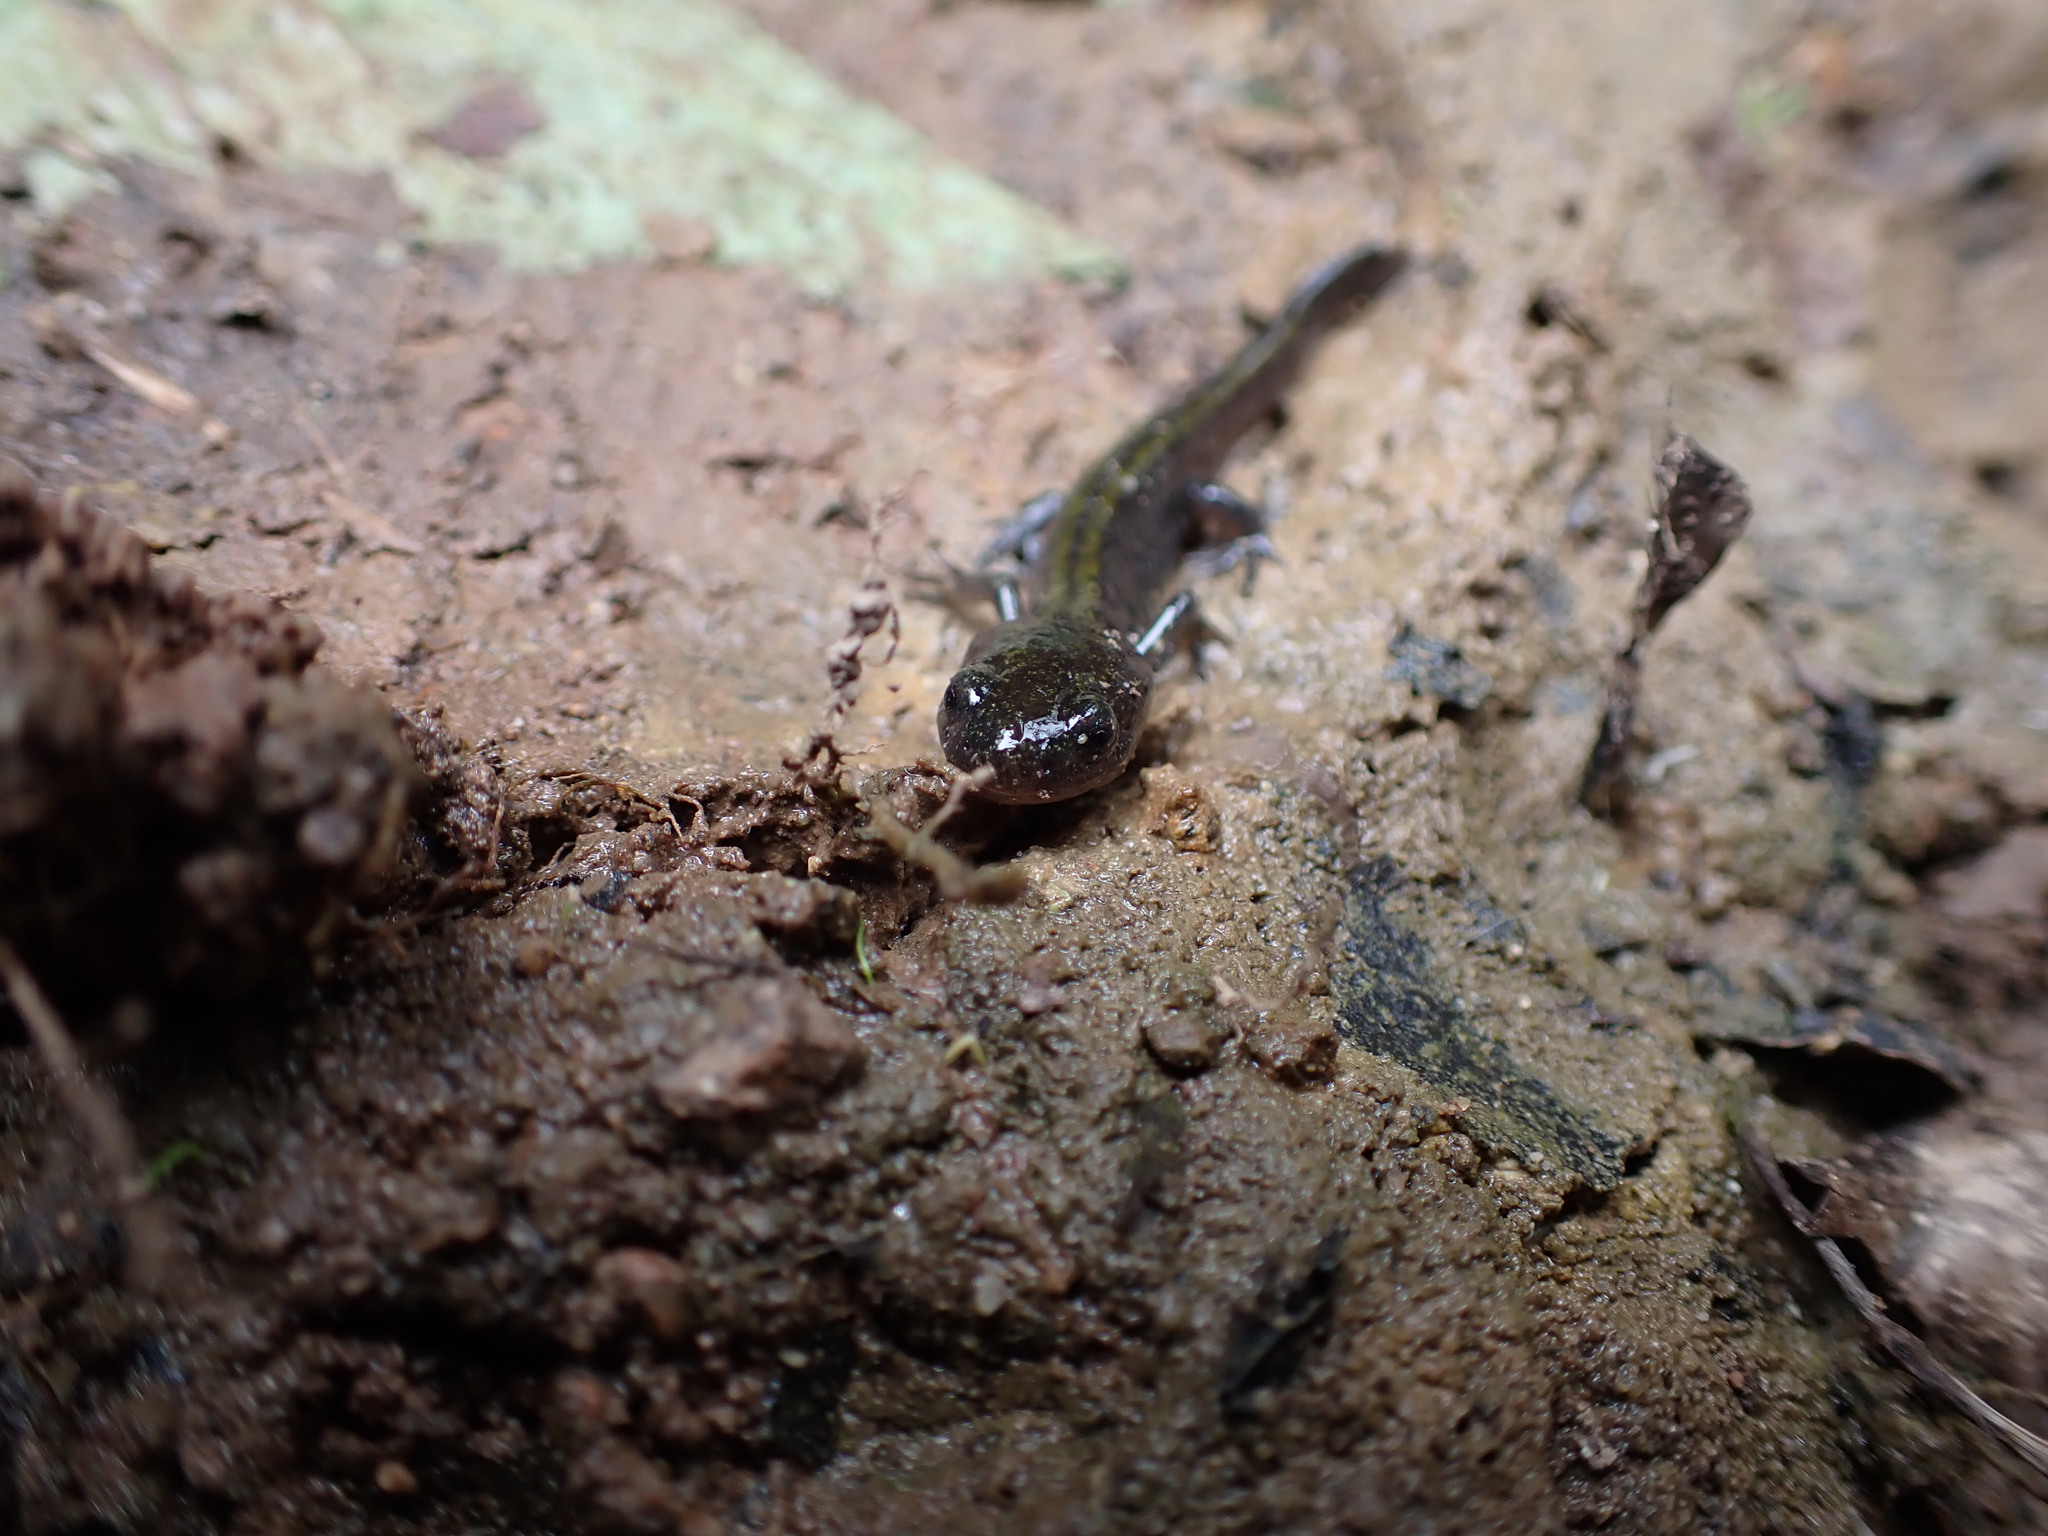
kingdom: Animalia
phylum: Chordata
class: Amphibia
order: Caudata
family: Ambystomatidae
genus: Ambystoma
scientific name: Ambystoma macrodactylum
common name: Long-toed salamander
